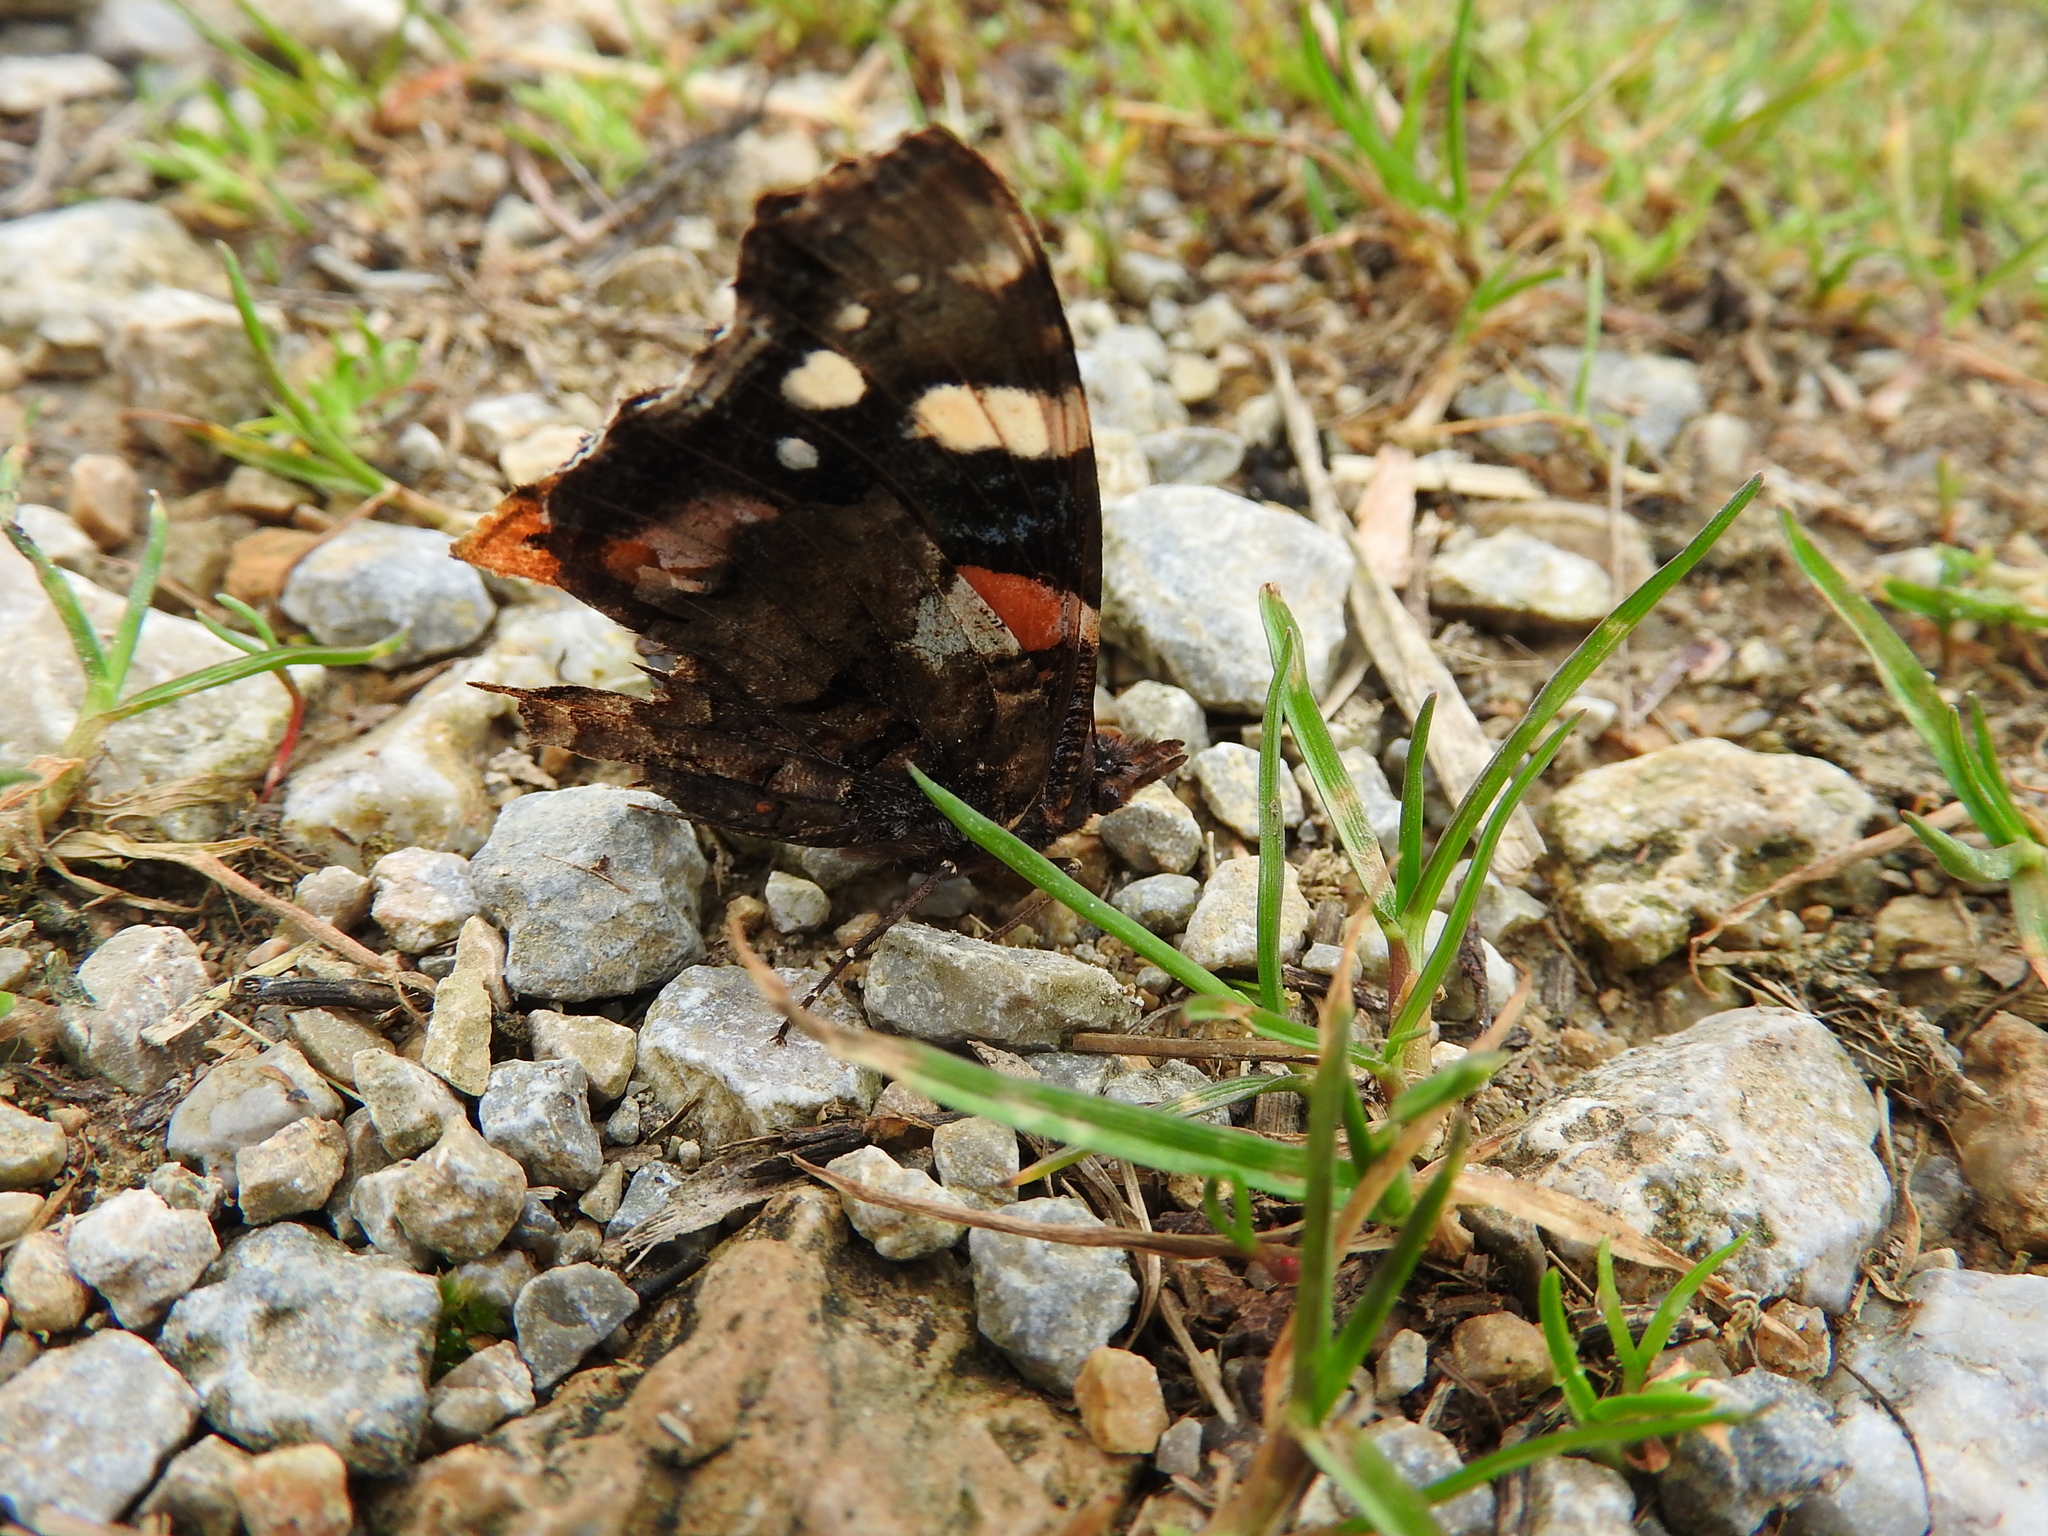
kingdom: Animalia
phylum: Arthropoda
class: Insecta
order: Lepidoptera
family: Nymphalidae
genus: Vanessa
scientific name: Vanessa atalanta
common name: Red admiral
